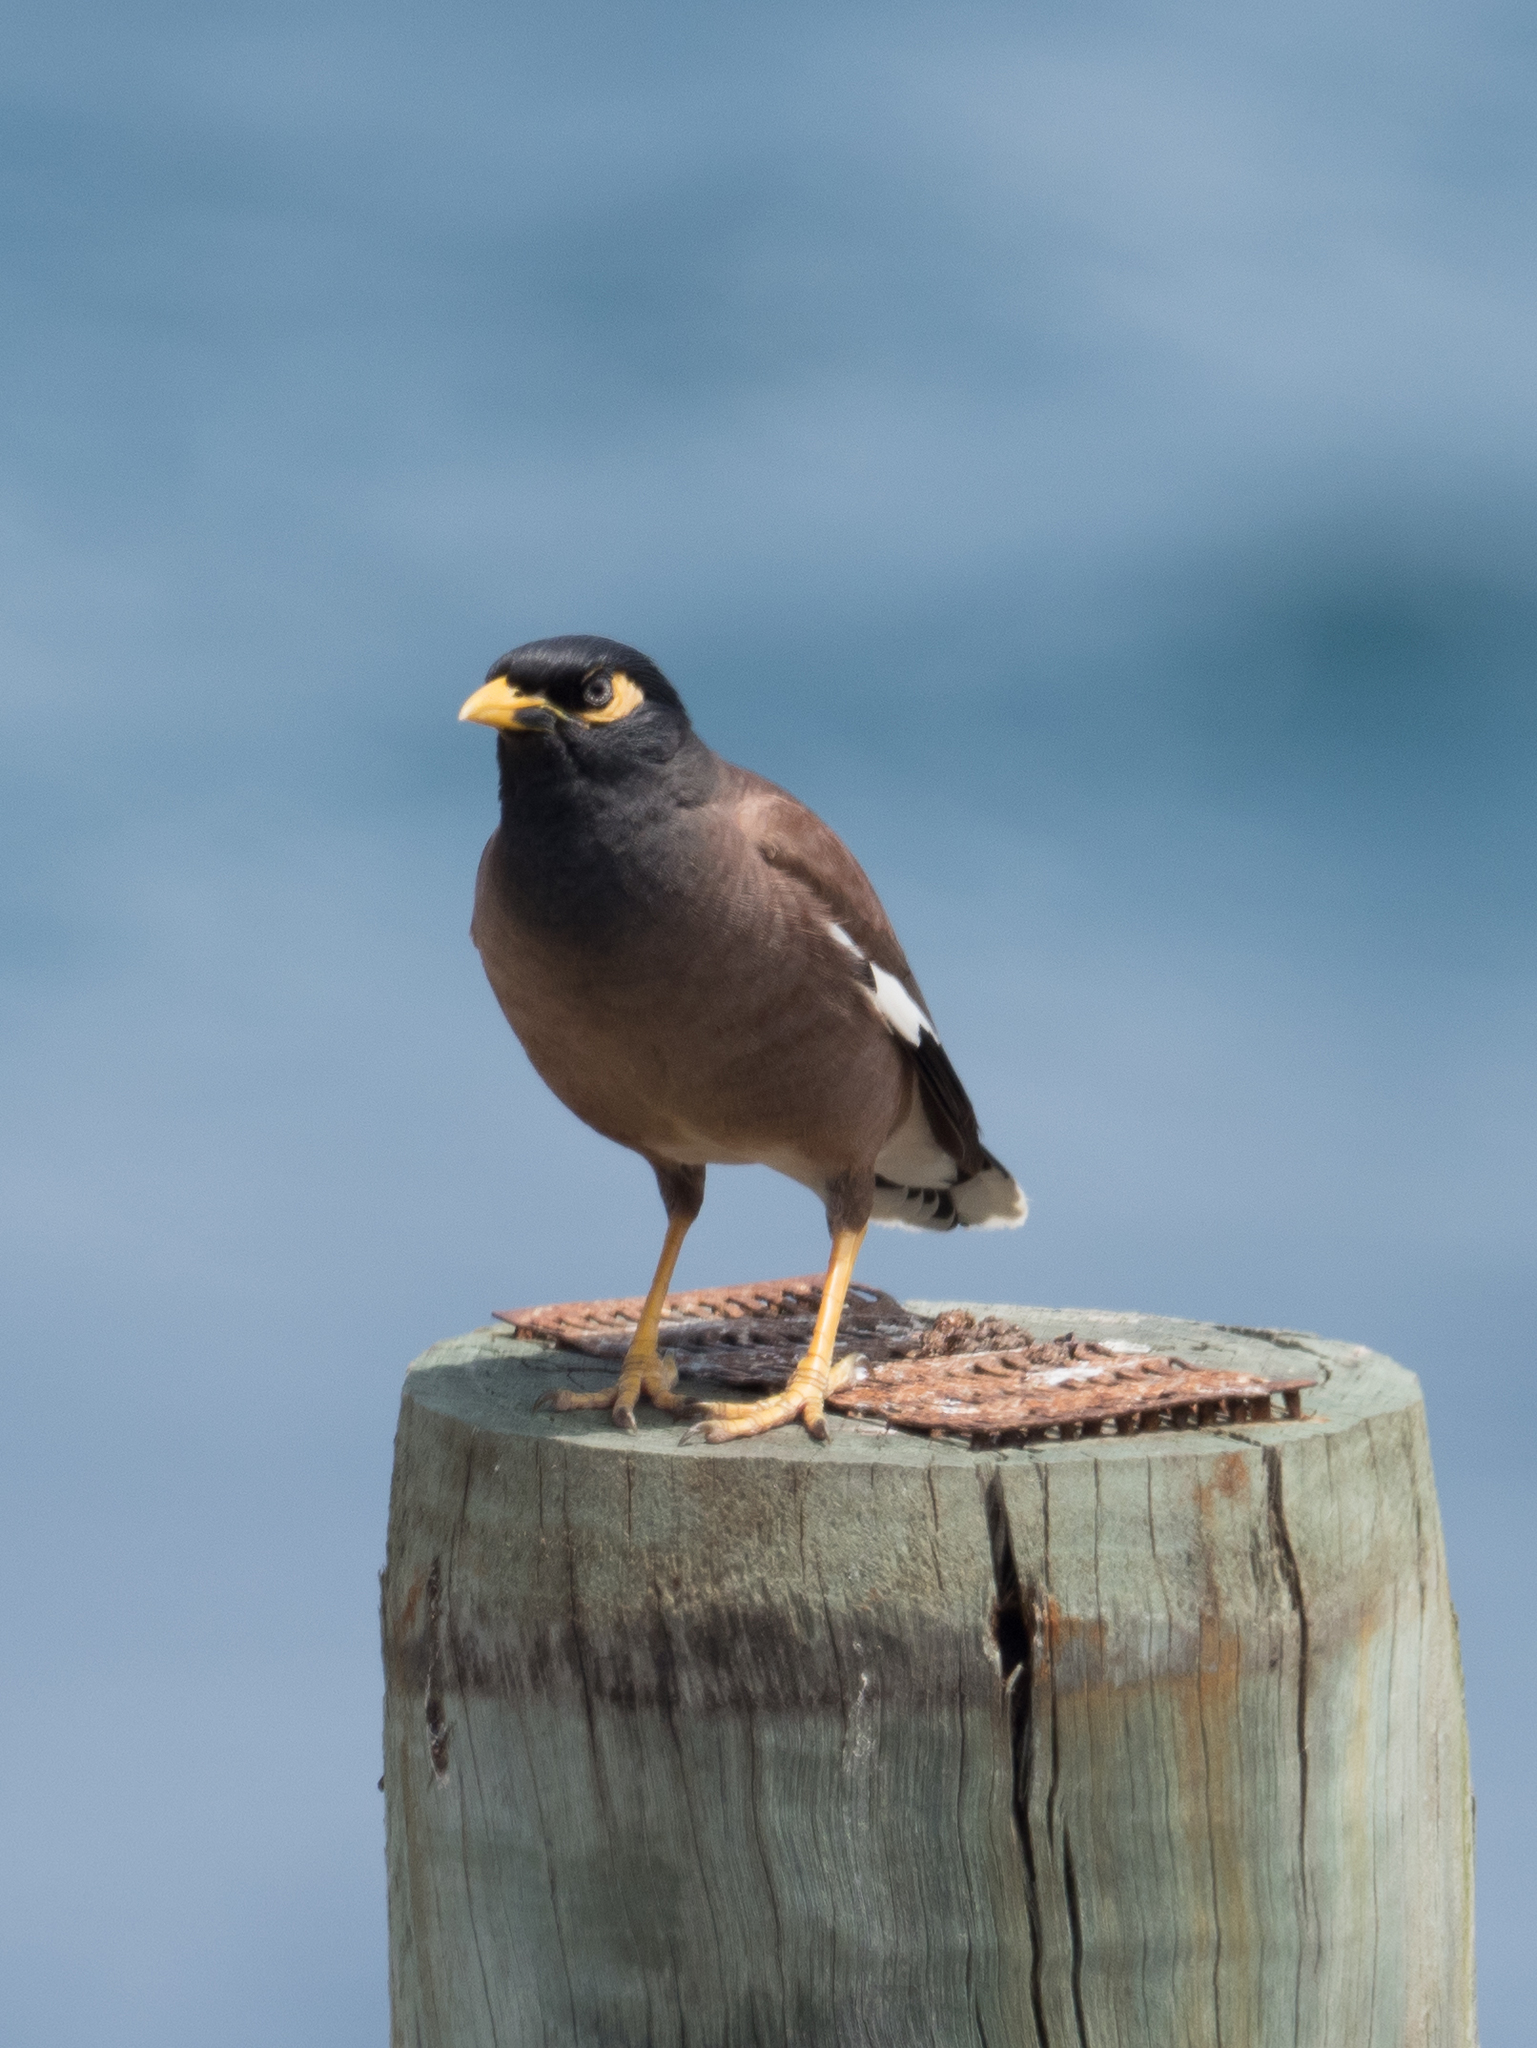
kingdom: Animalia
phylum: Chordata
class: Aves
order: Passeriformes
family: Sturnidae
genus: Acridotheres
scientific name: Acridotheres tristis
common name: Common myna
